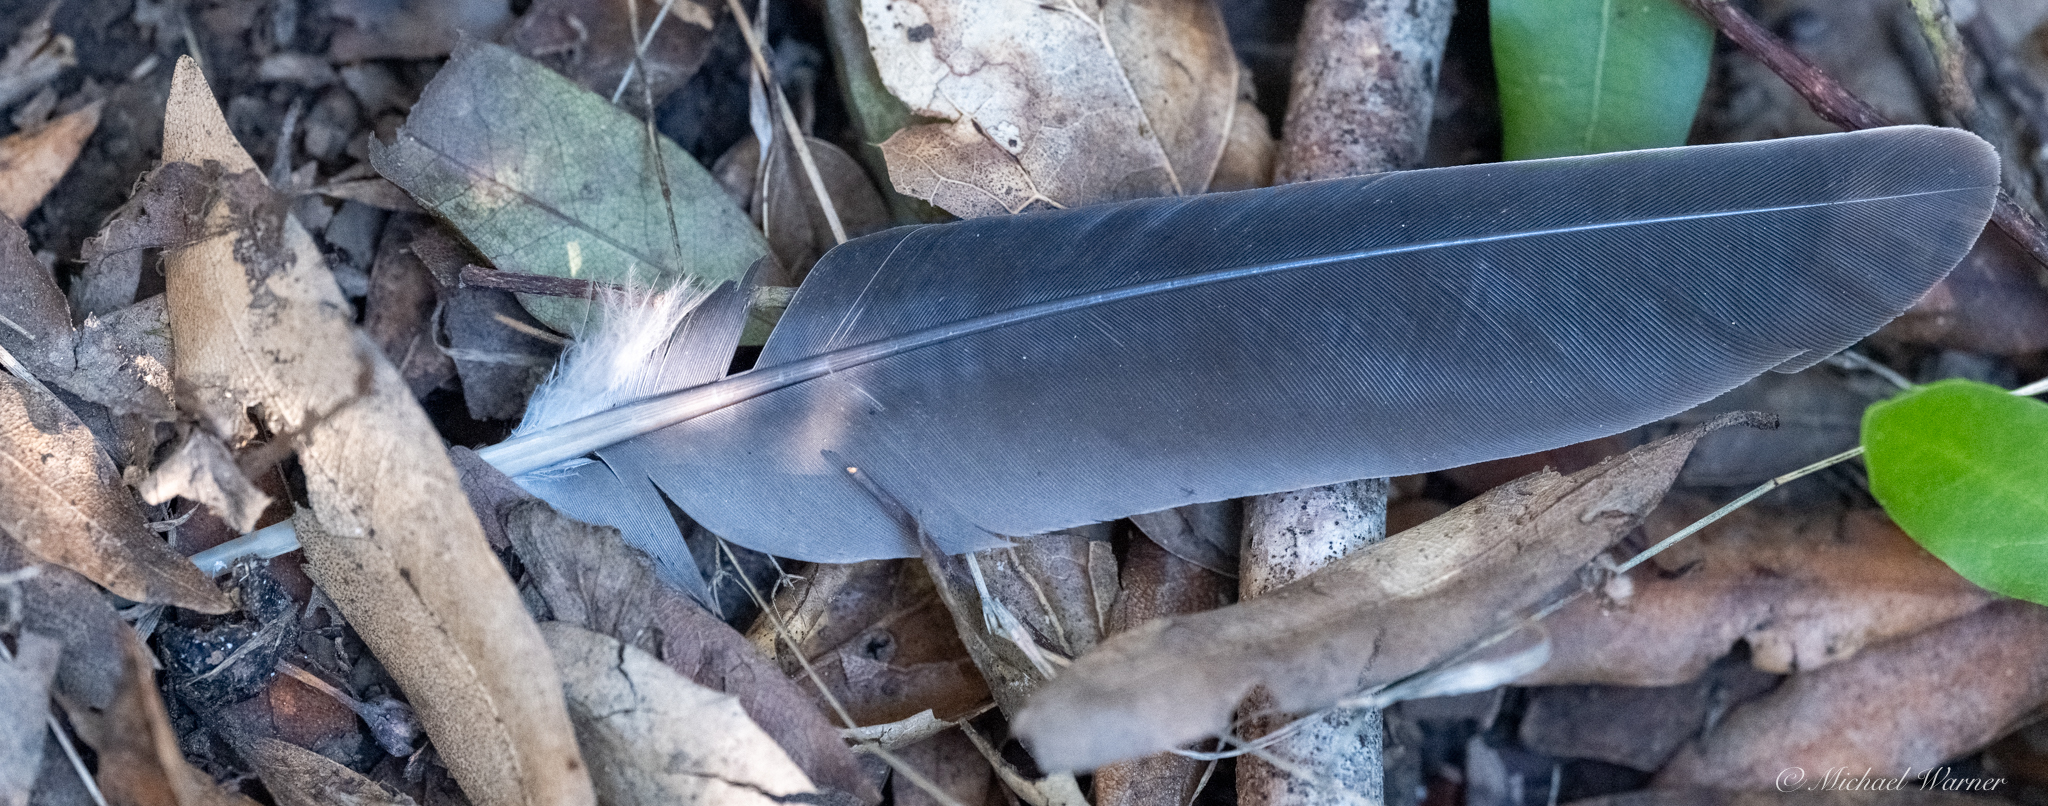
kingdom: Animalia
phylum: Chordata
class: Aves
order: Columbiformes
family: Columbidae
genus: Patagioenas
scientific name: Patagioenas fasciata
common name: Band-tailed pigeon
